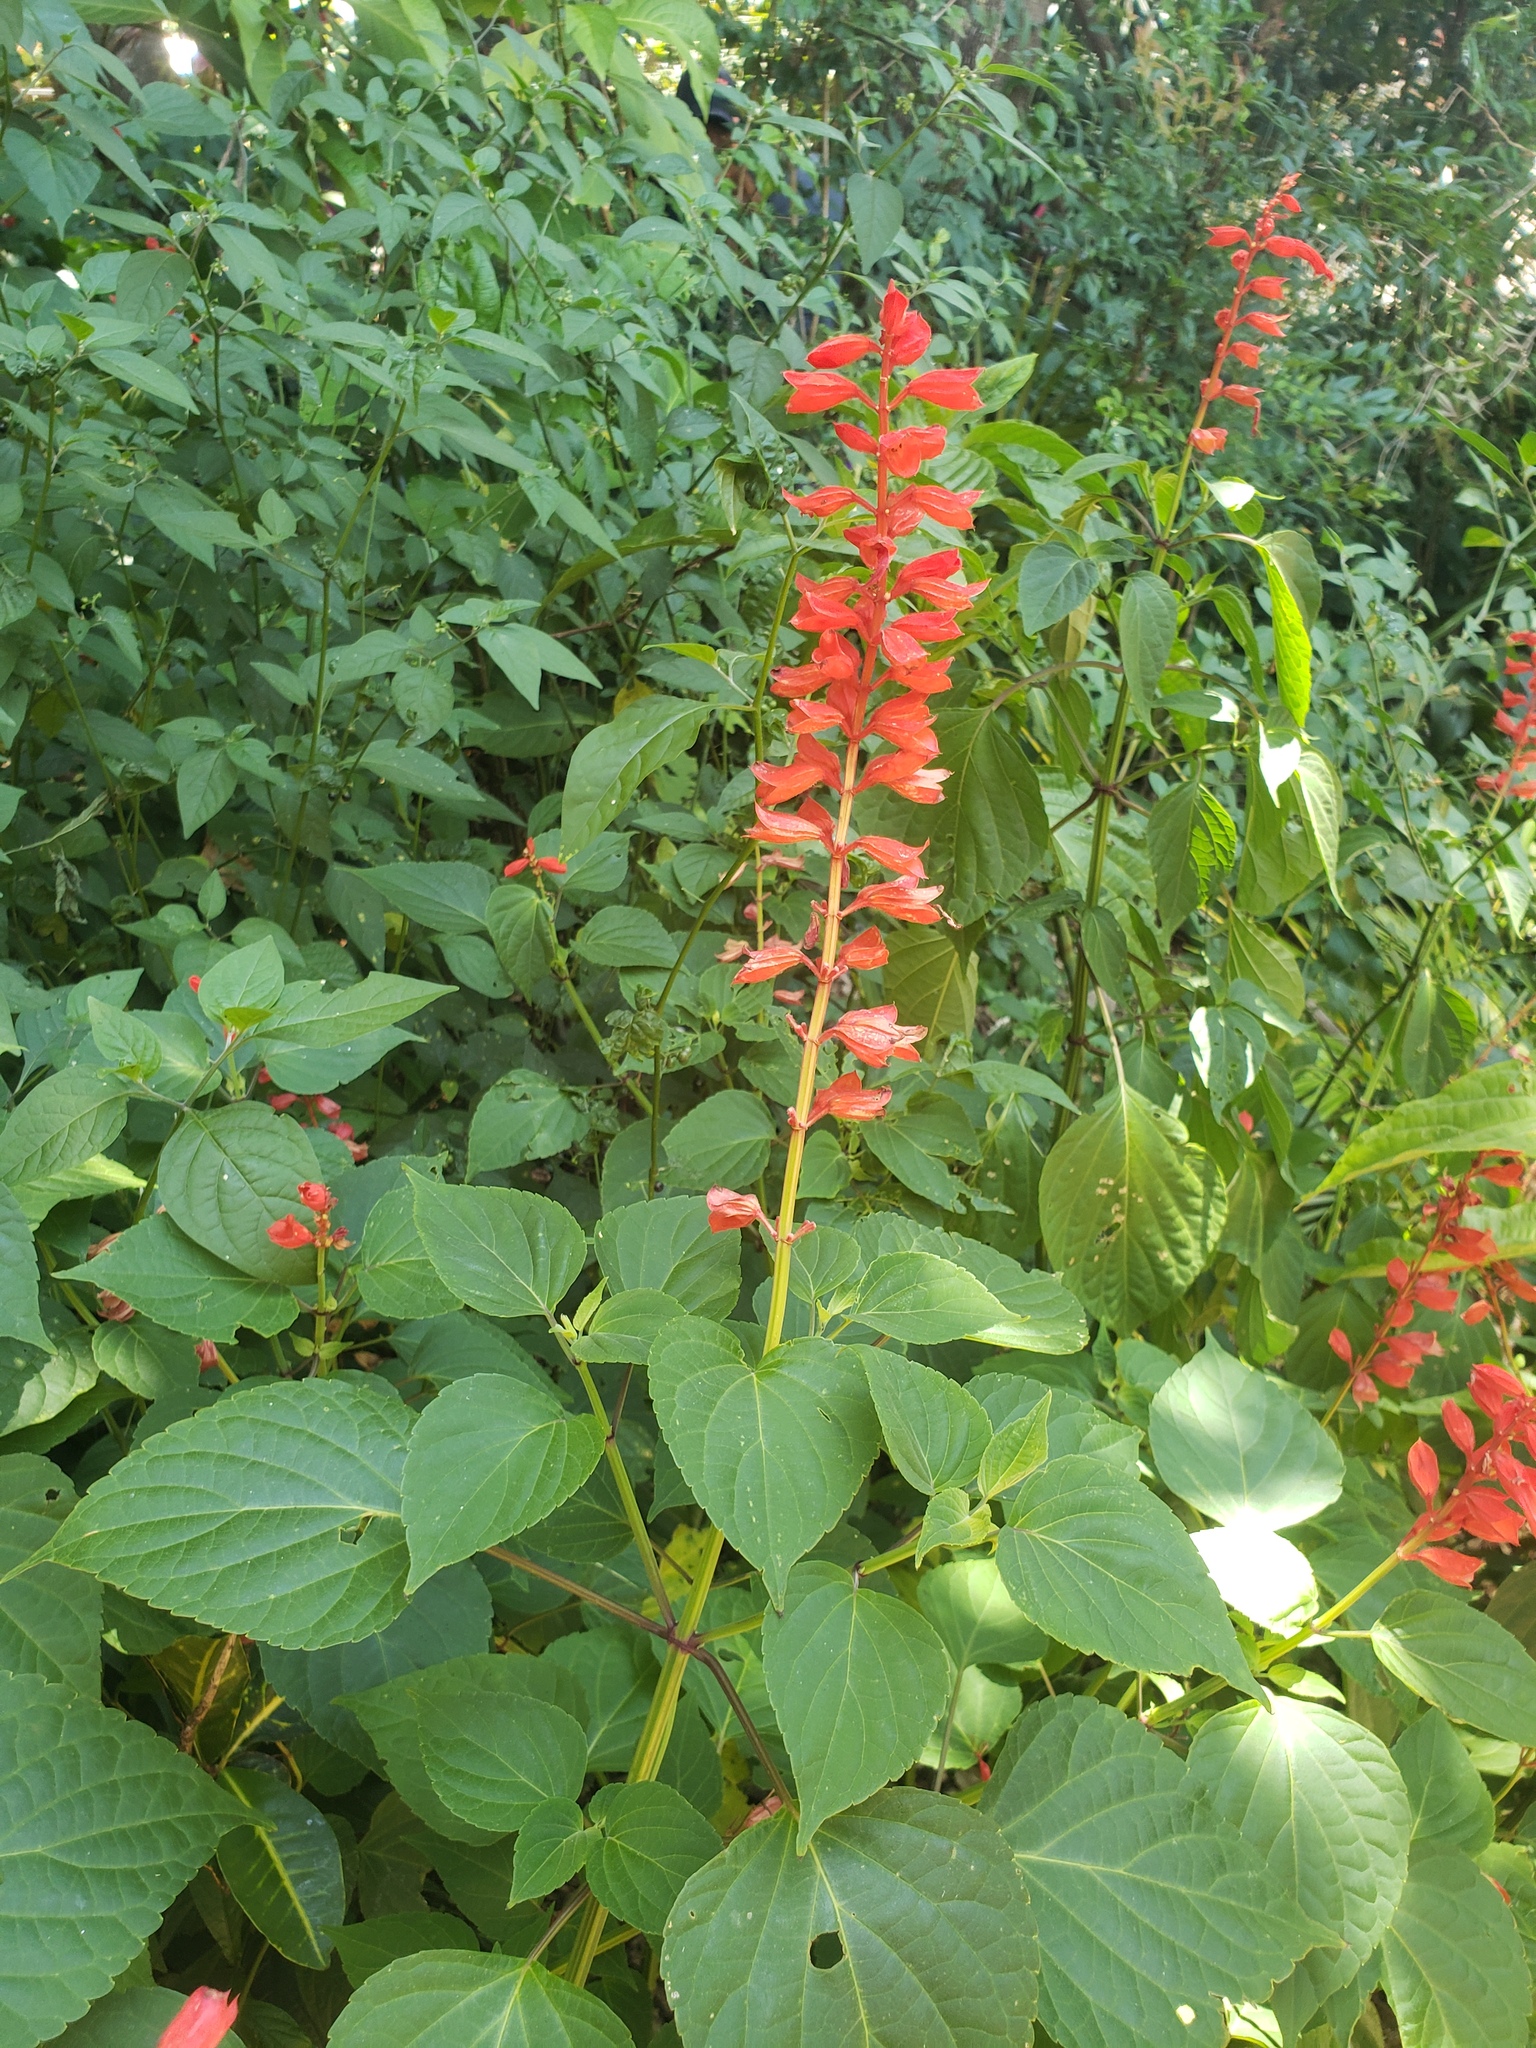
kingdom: Plantae
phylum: Tracheophyta
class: Magnoliopsida
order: Lamiales
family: Lamiaceae
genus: Salvia
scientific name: Salvia splendens
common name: Scarlet sage
